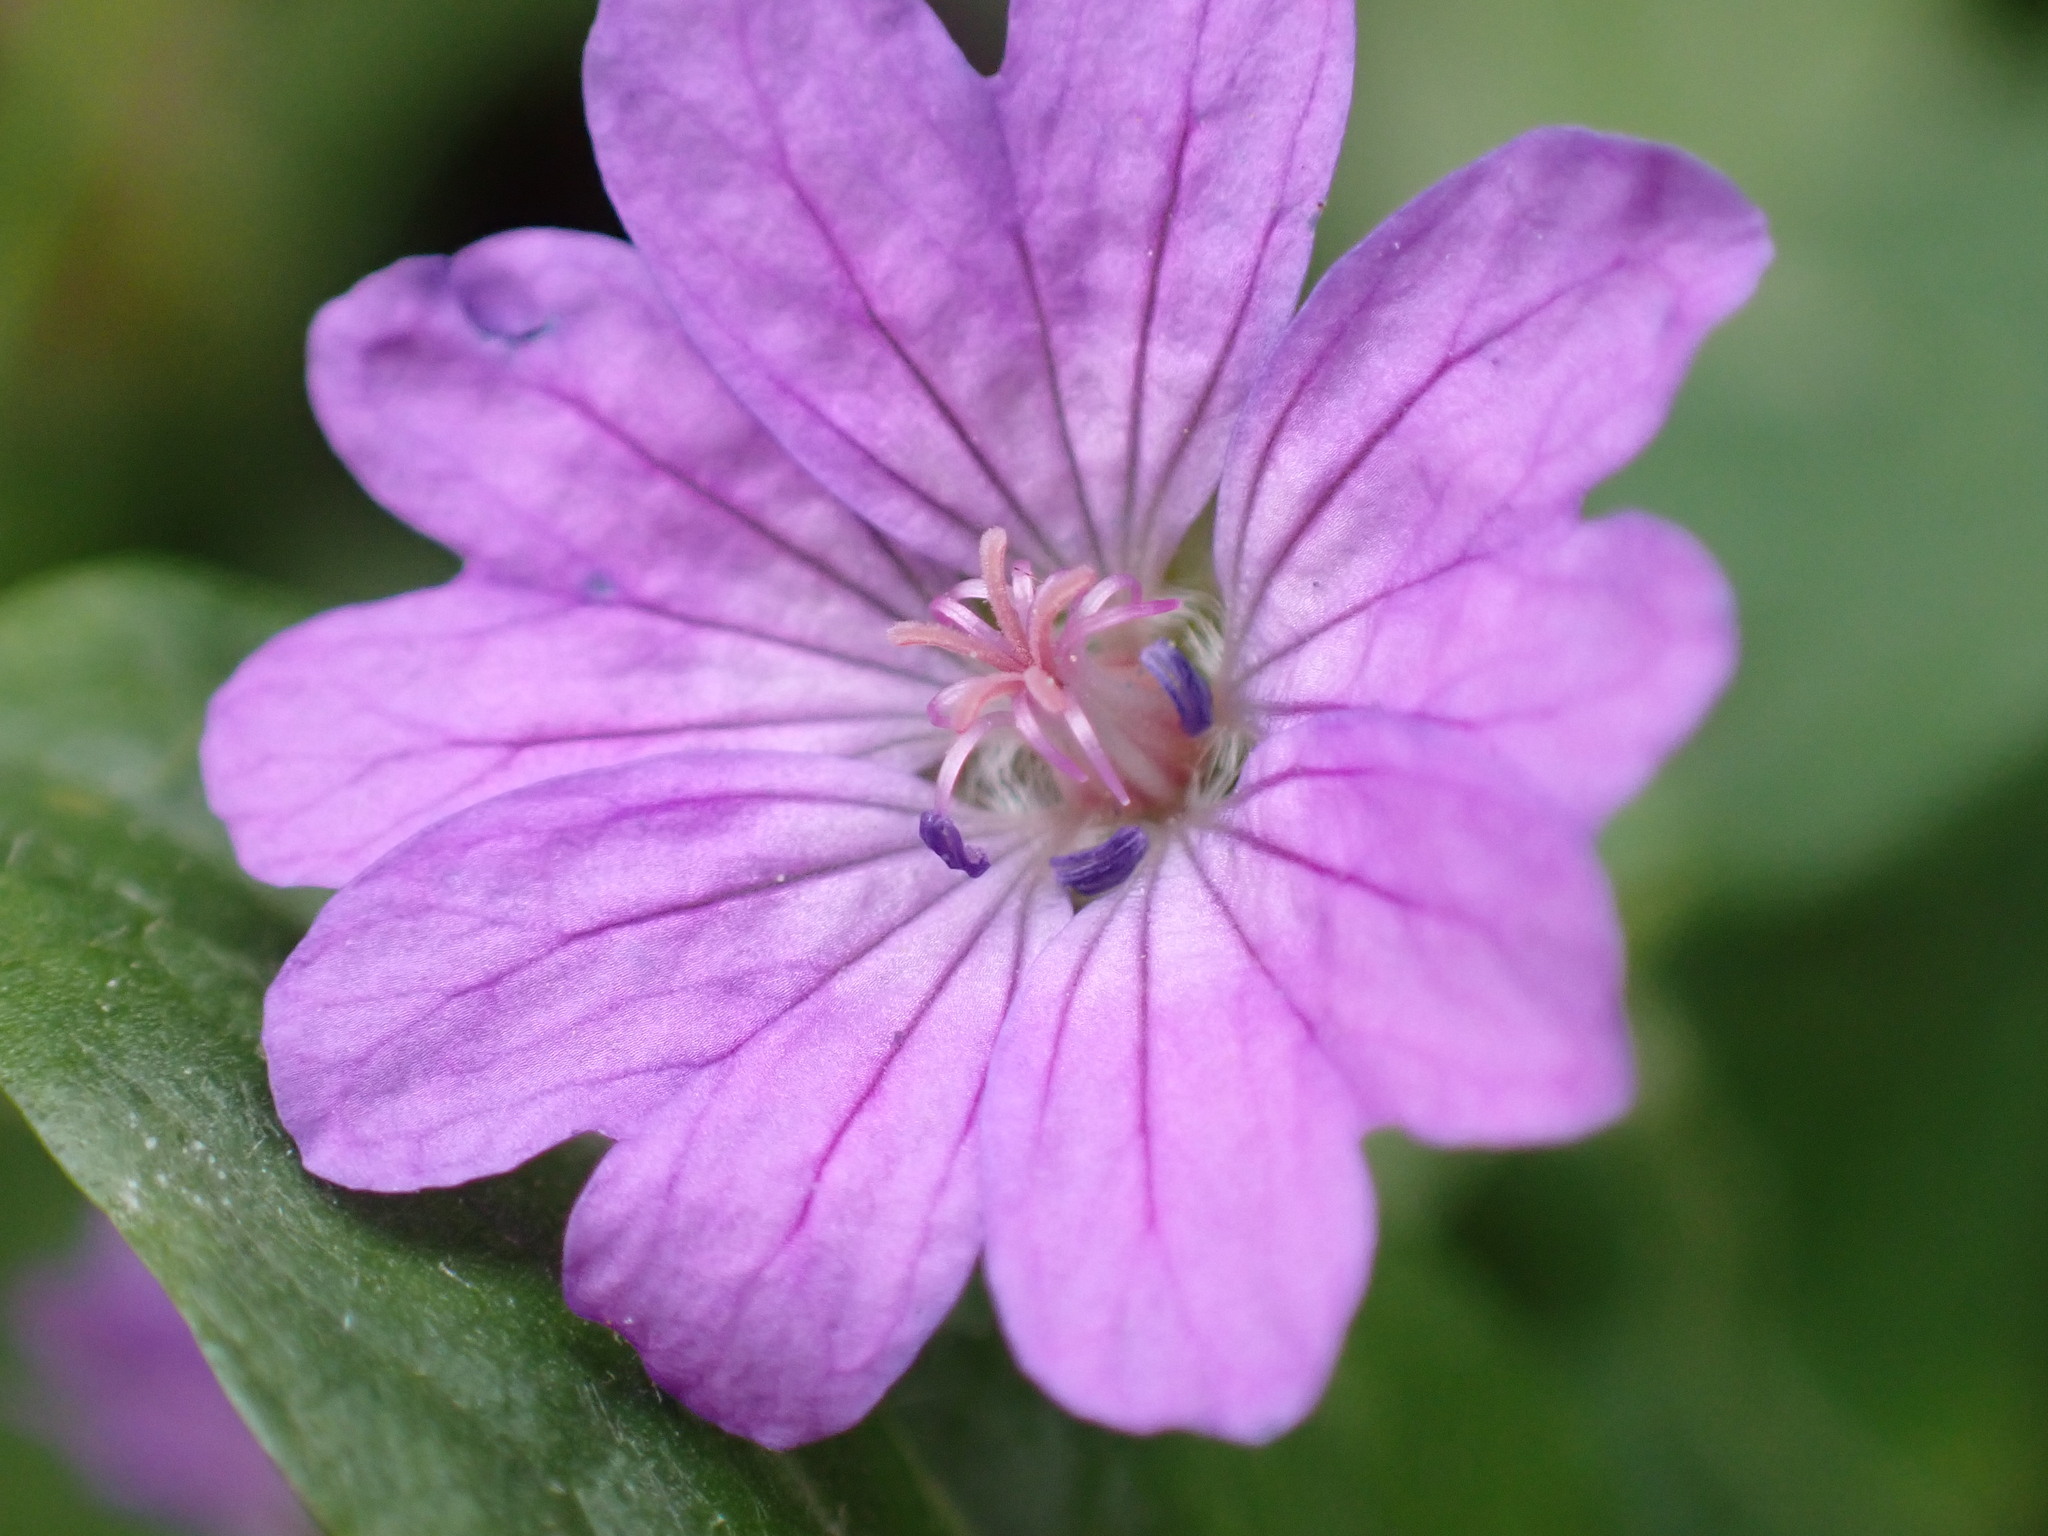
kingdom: Plantae
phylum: Tracheophyta
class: Magnoliopsida
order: Geraniales
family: Geraniaceae
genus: Geranium
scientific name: Geranium pyrenaicum
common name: Hedgerow crane's-bill
